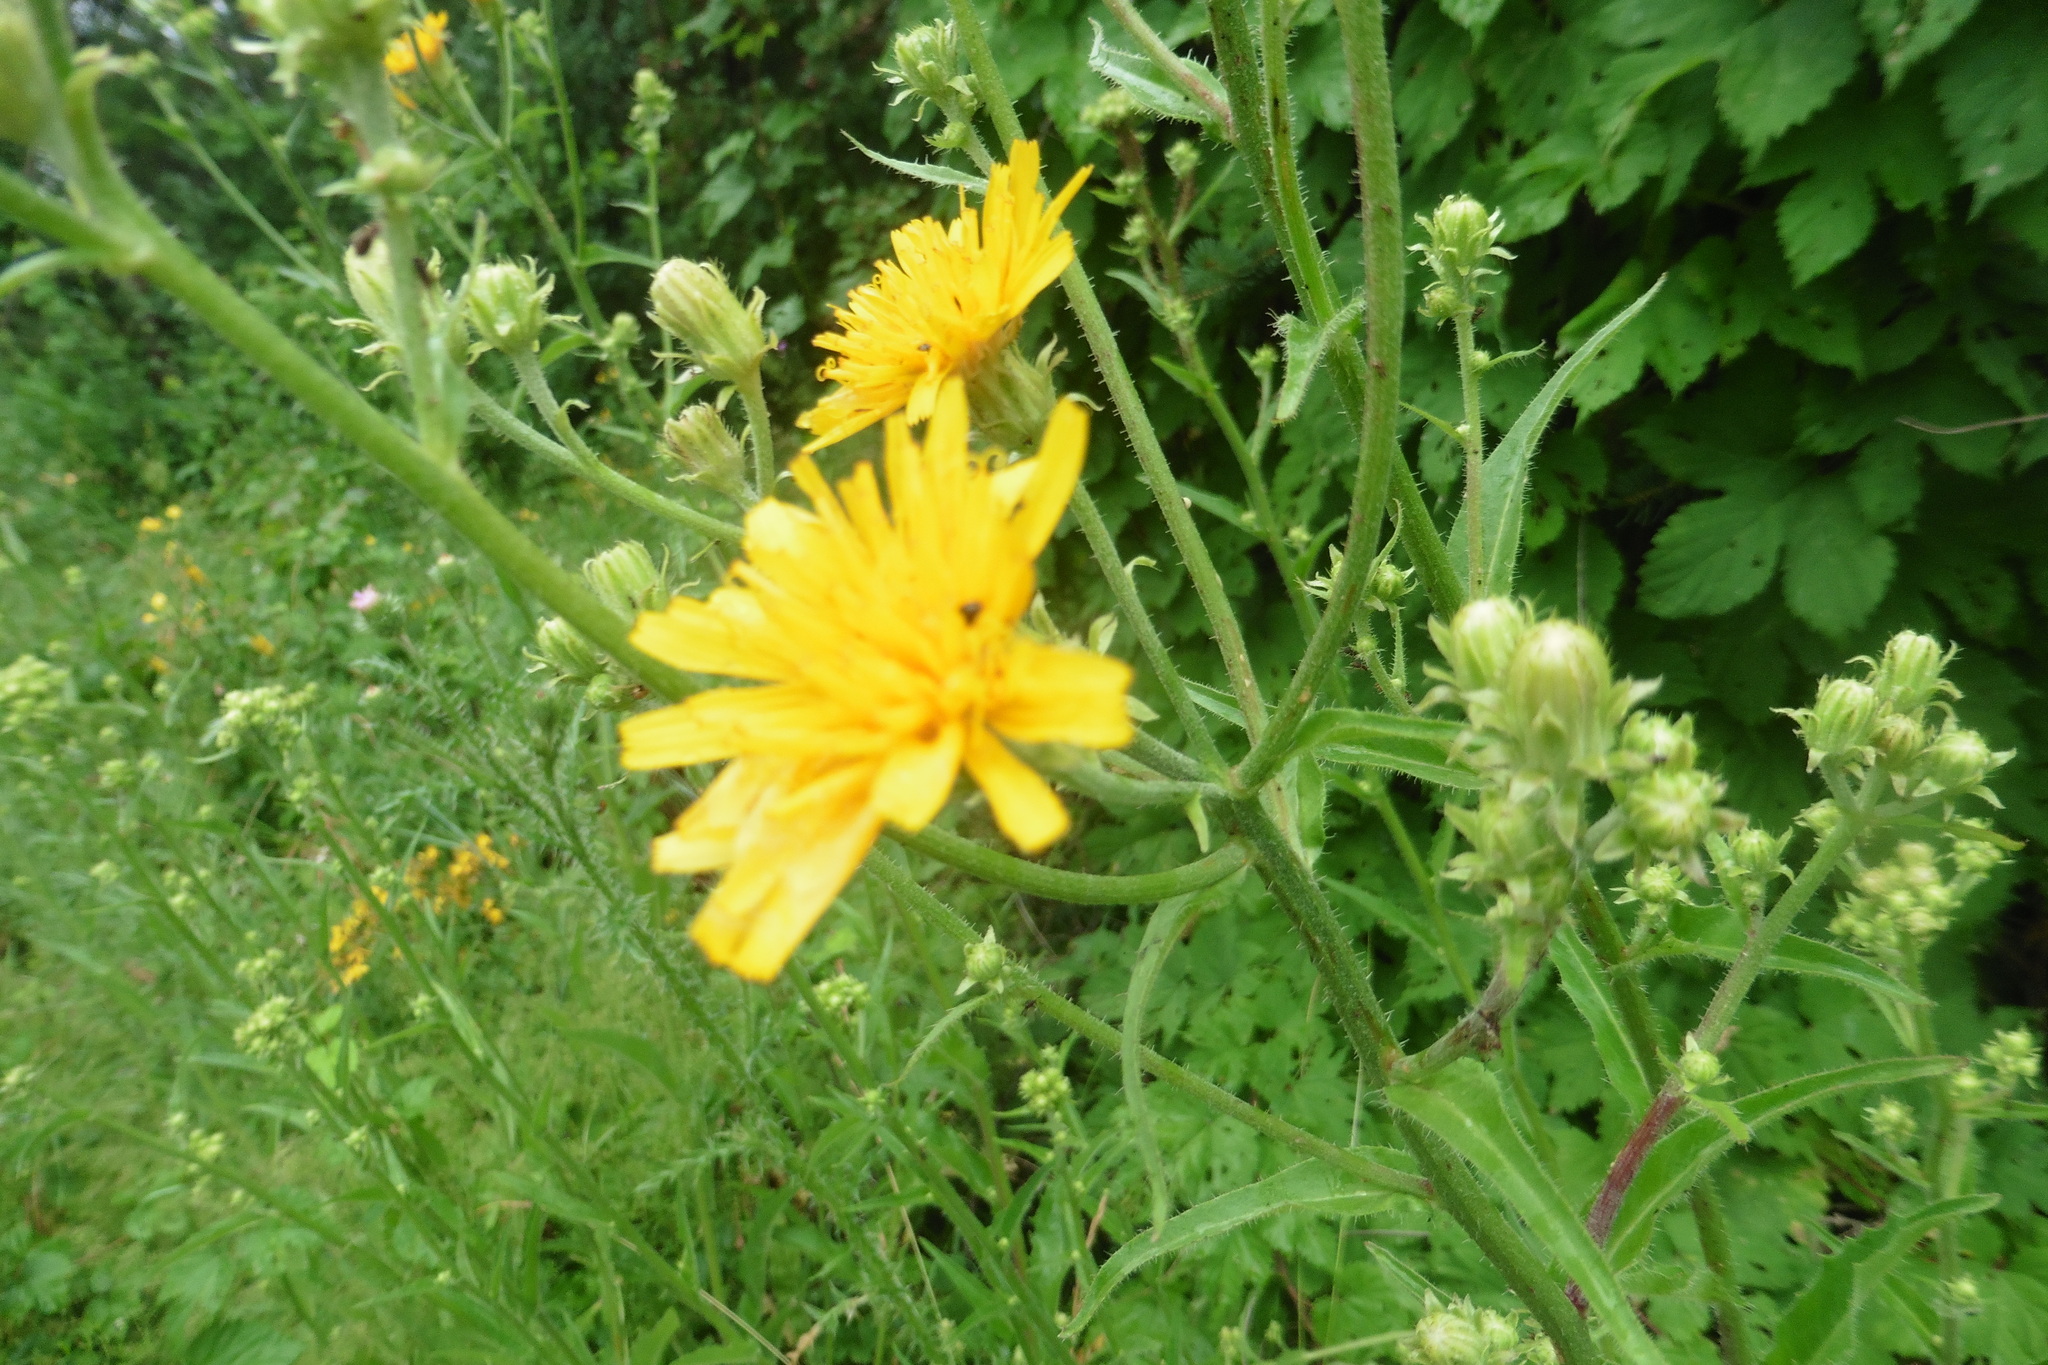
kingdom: Plantae
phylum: Tracheophyta
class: Magnoliopsida
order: Asterales
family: Asteraceae
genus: Picris
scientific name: Picris hieracioides
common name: Hawkweed oxtongue
